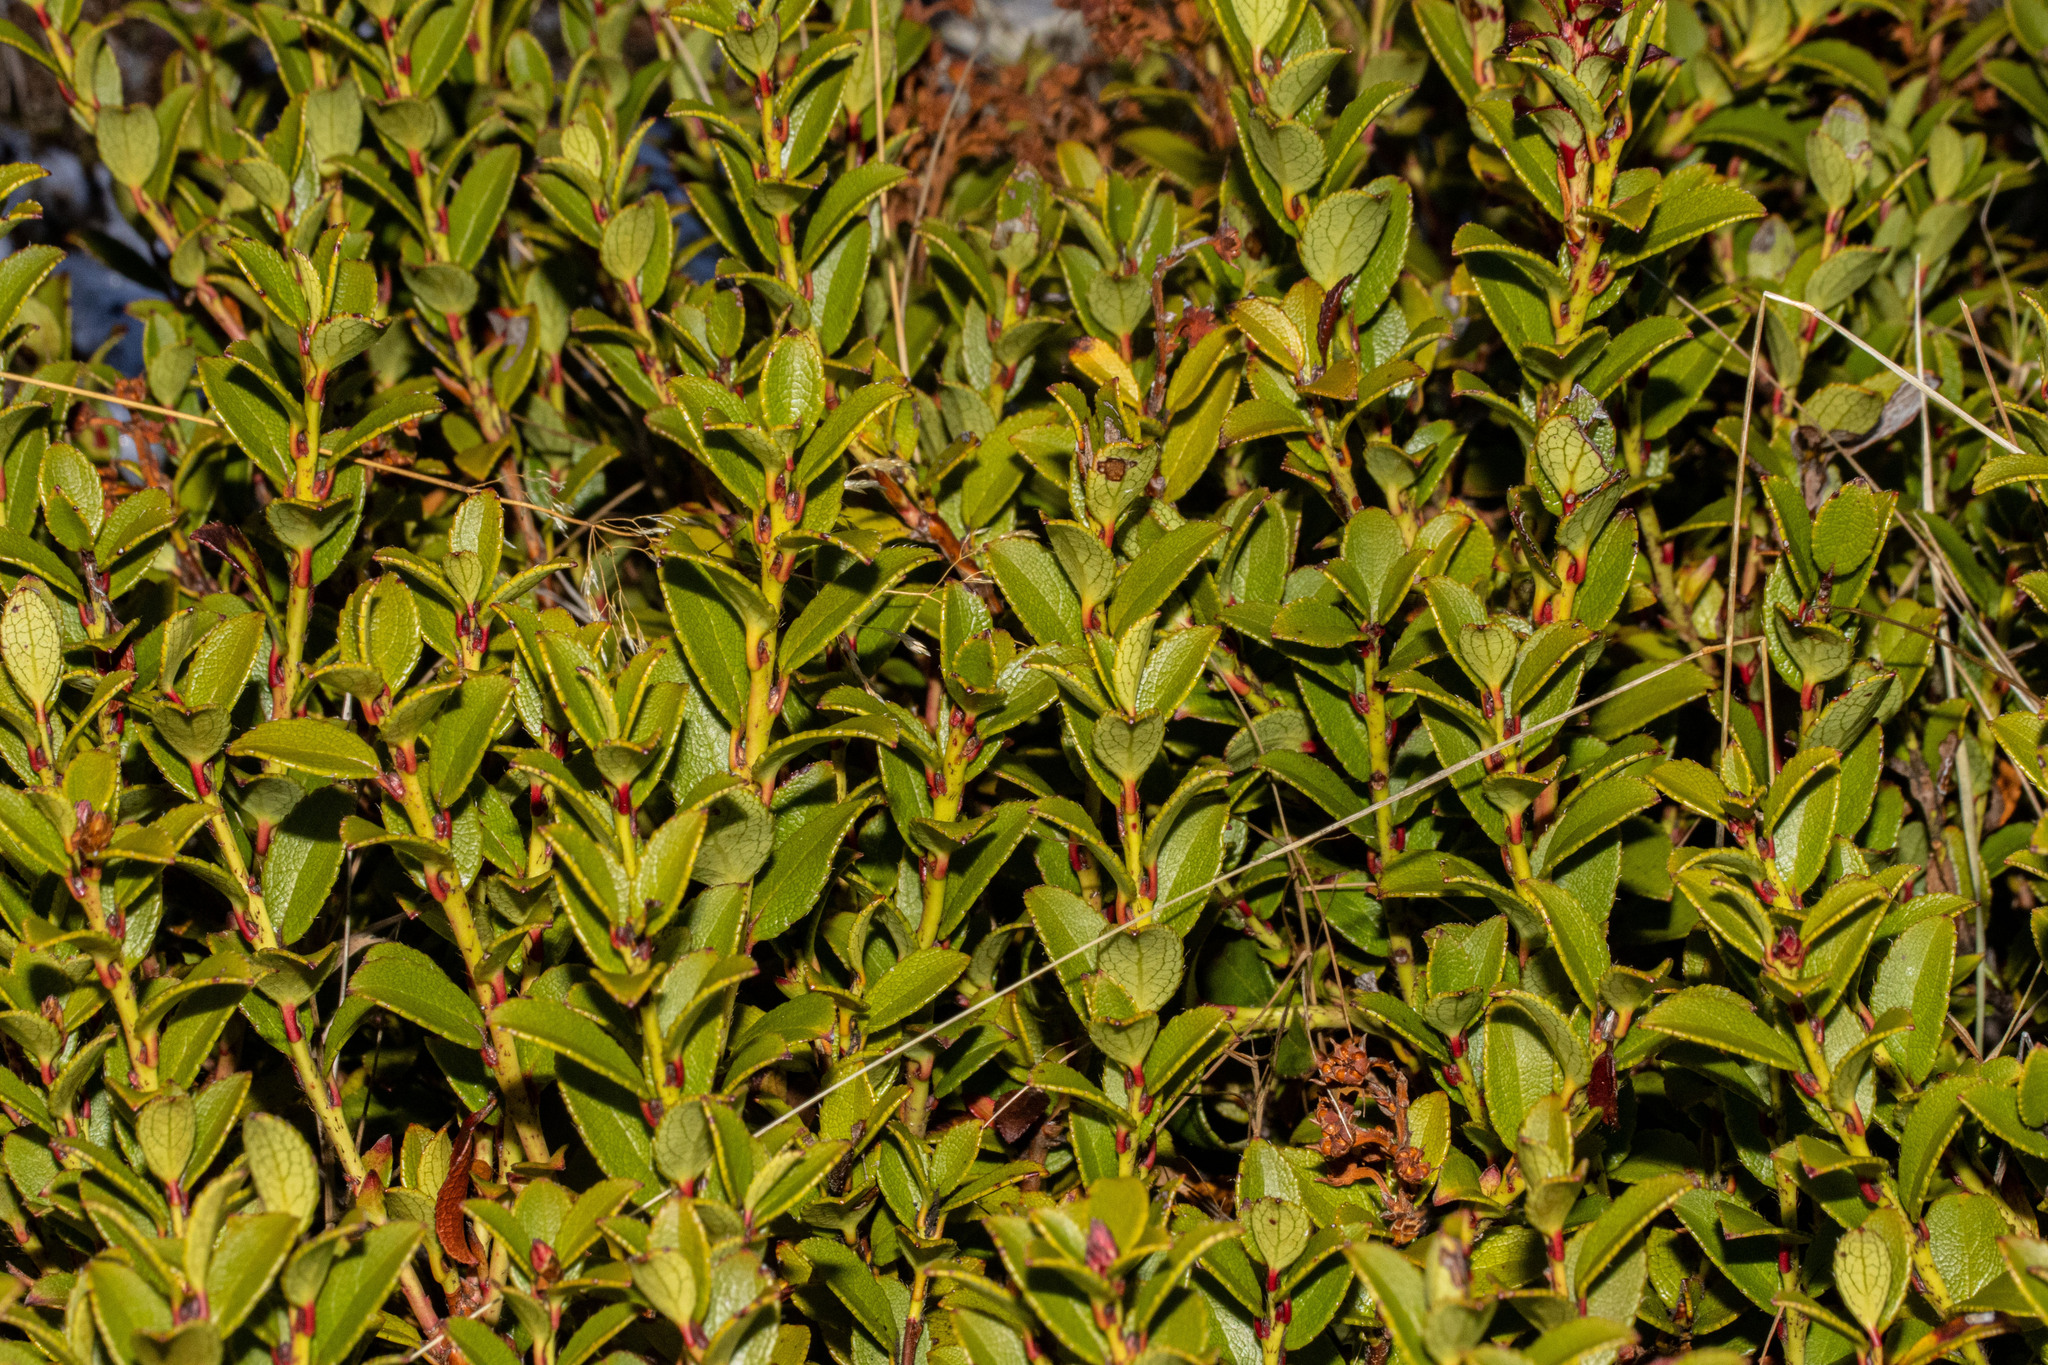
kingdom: Plantae
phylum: Tracheophyta
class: Magnoliopsida
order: Ericales
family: Ericaceae
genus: Gaultheria
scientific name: Gaultheria crassa
